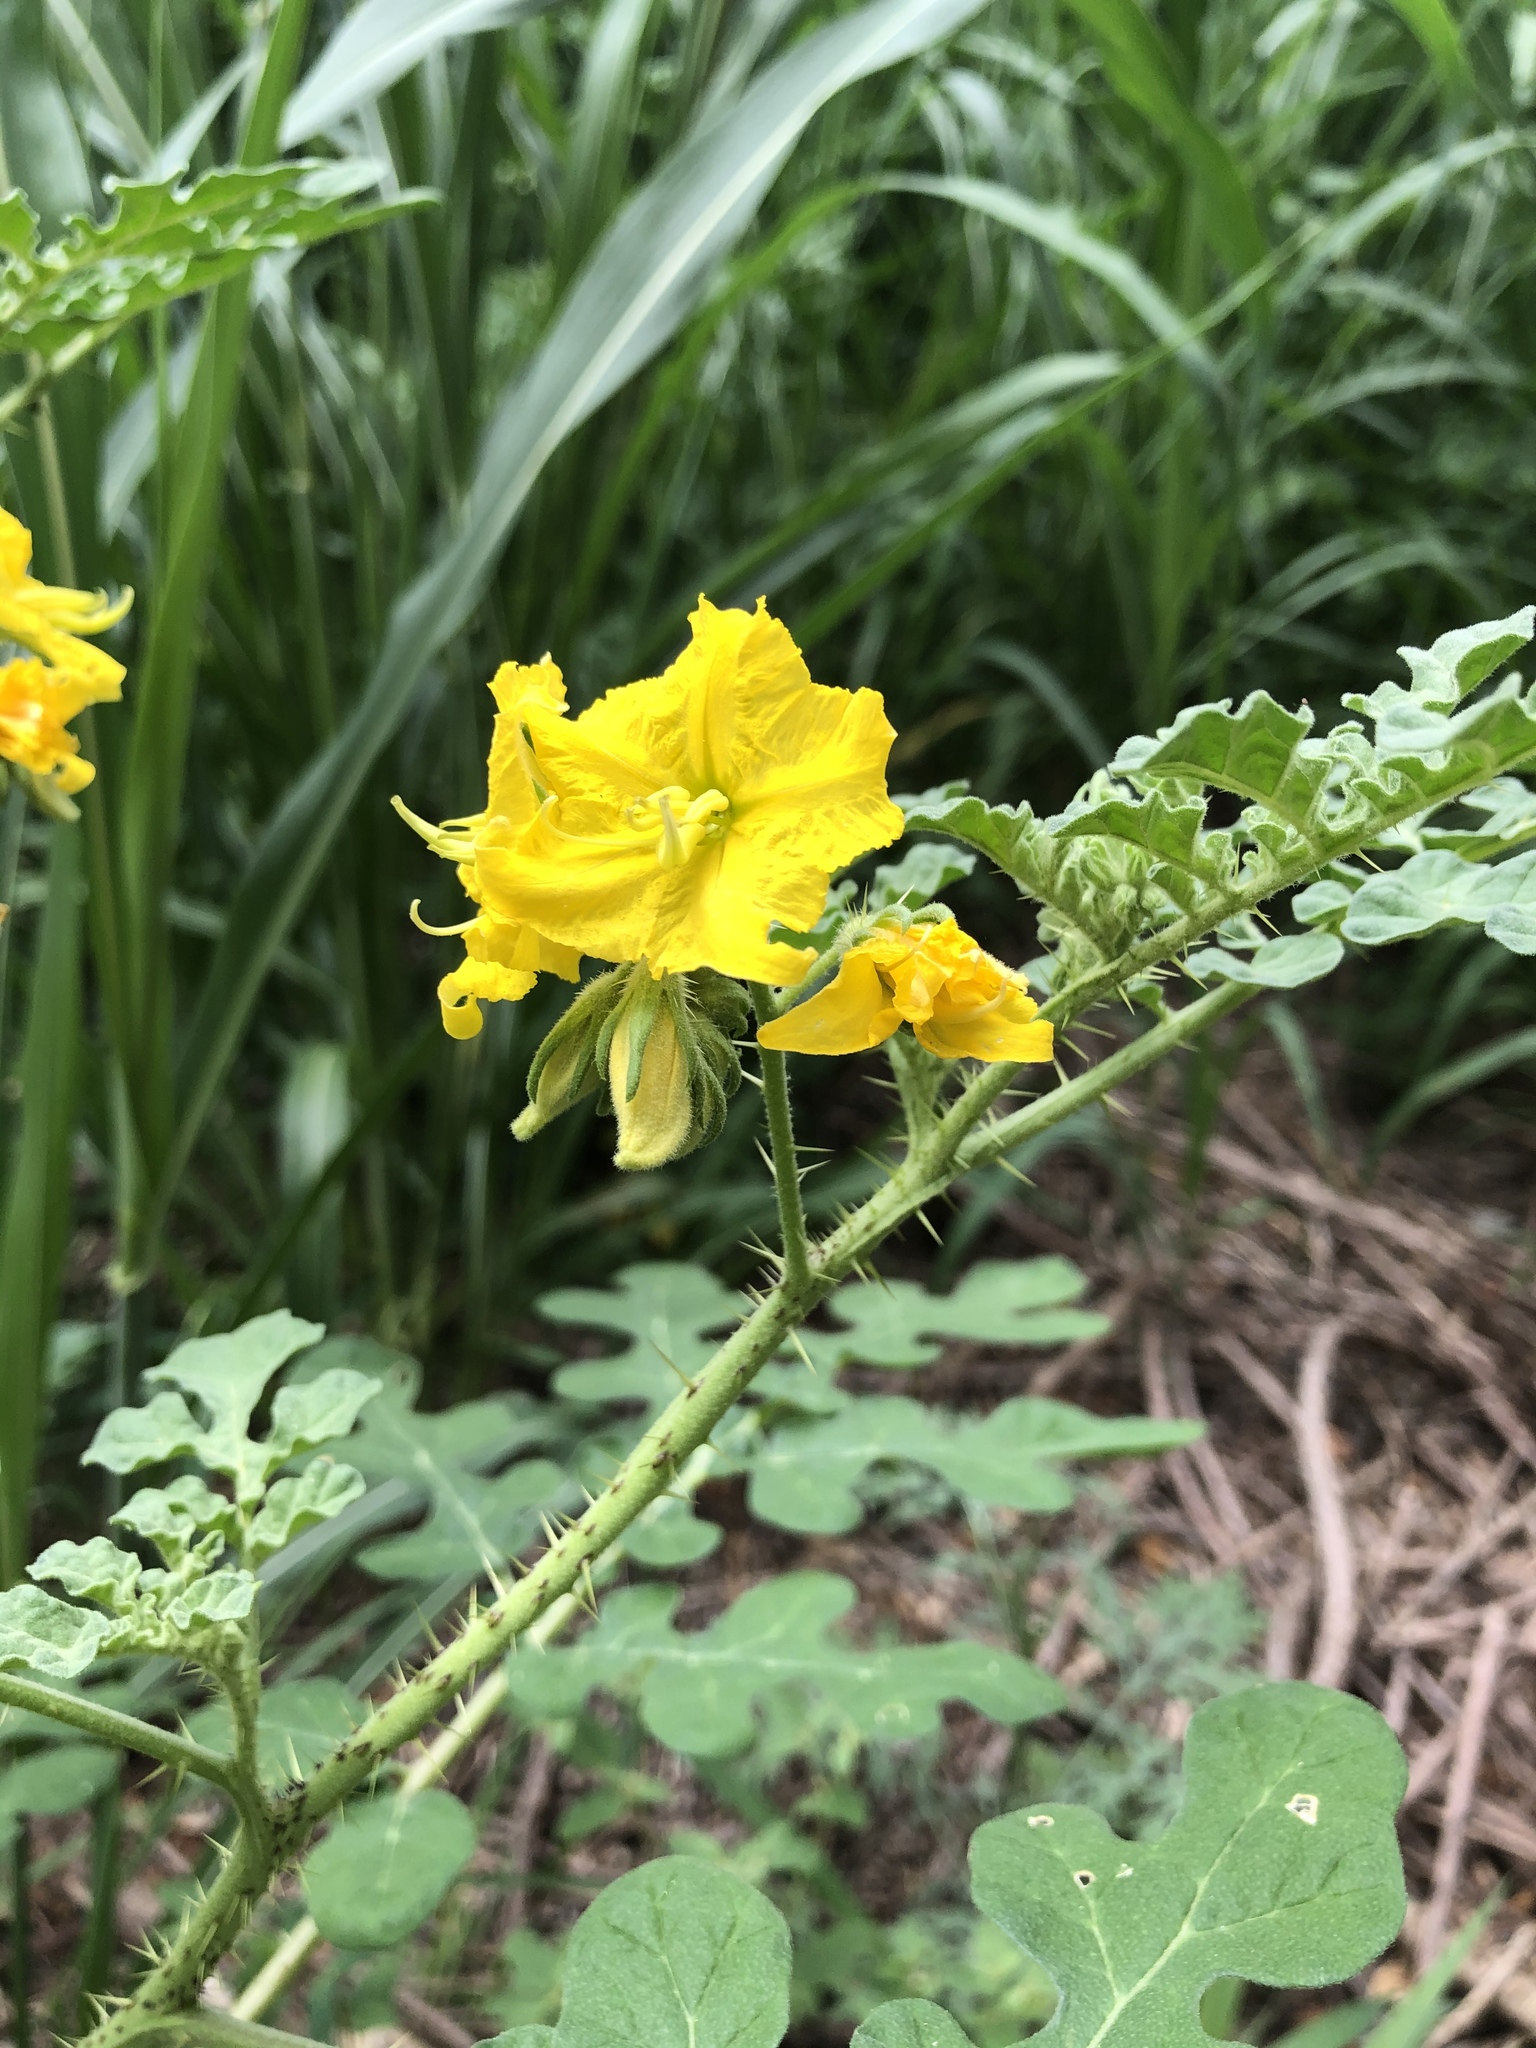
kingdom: Plantae
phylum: Tracheophyta
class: Magnoliopsida
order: Solanales
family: Solanaceae
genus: Solanum
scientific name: Solanum angustifolium
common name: Buffalobur nightshade
